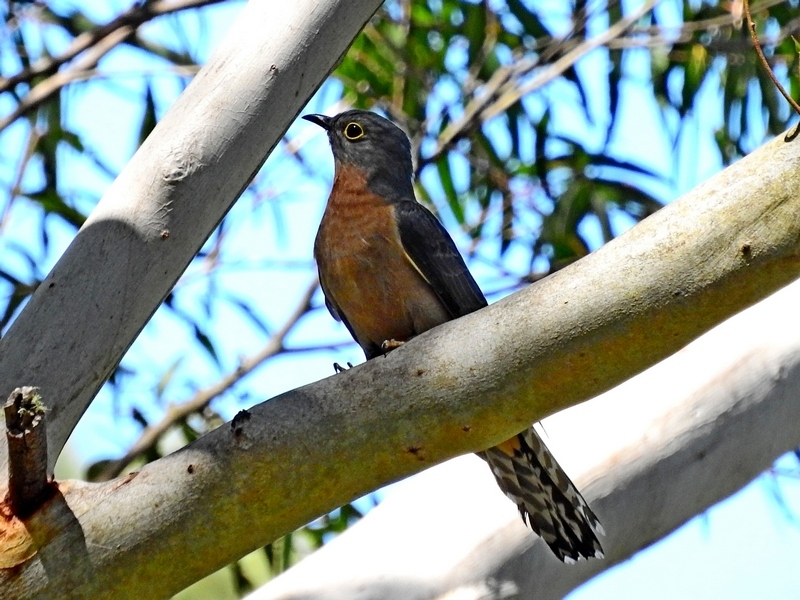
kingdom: Animalia
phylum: Chordata
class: Aves
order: Cuculiformes
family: Cuculidae
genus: Cacomantis
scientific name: Cacomantis flabelliformis
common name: Fan-tailed cuckoo
